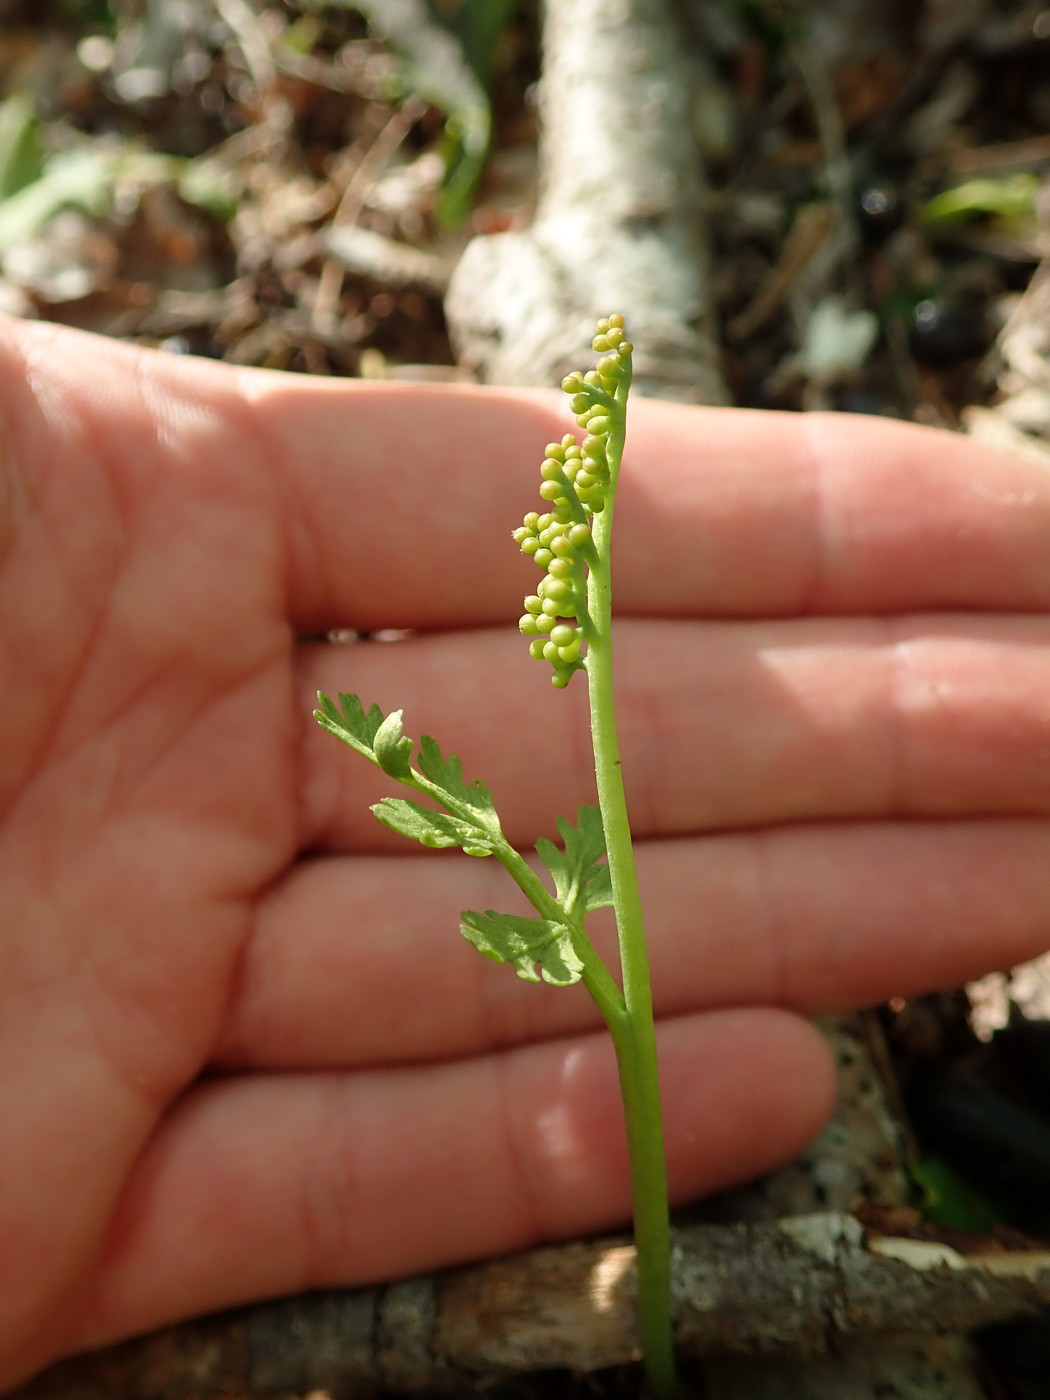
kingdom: Plantae
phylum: Tracheophyta
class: Polypodiopsida
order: Ophioglossales
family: Ophioglossaceae
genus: Botrychium
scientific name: Botrychium matricariifolium
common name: Branched moonwort
